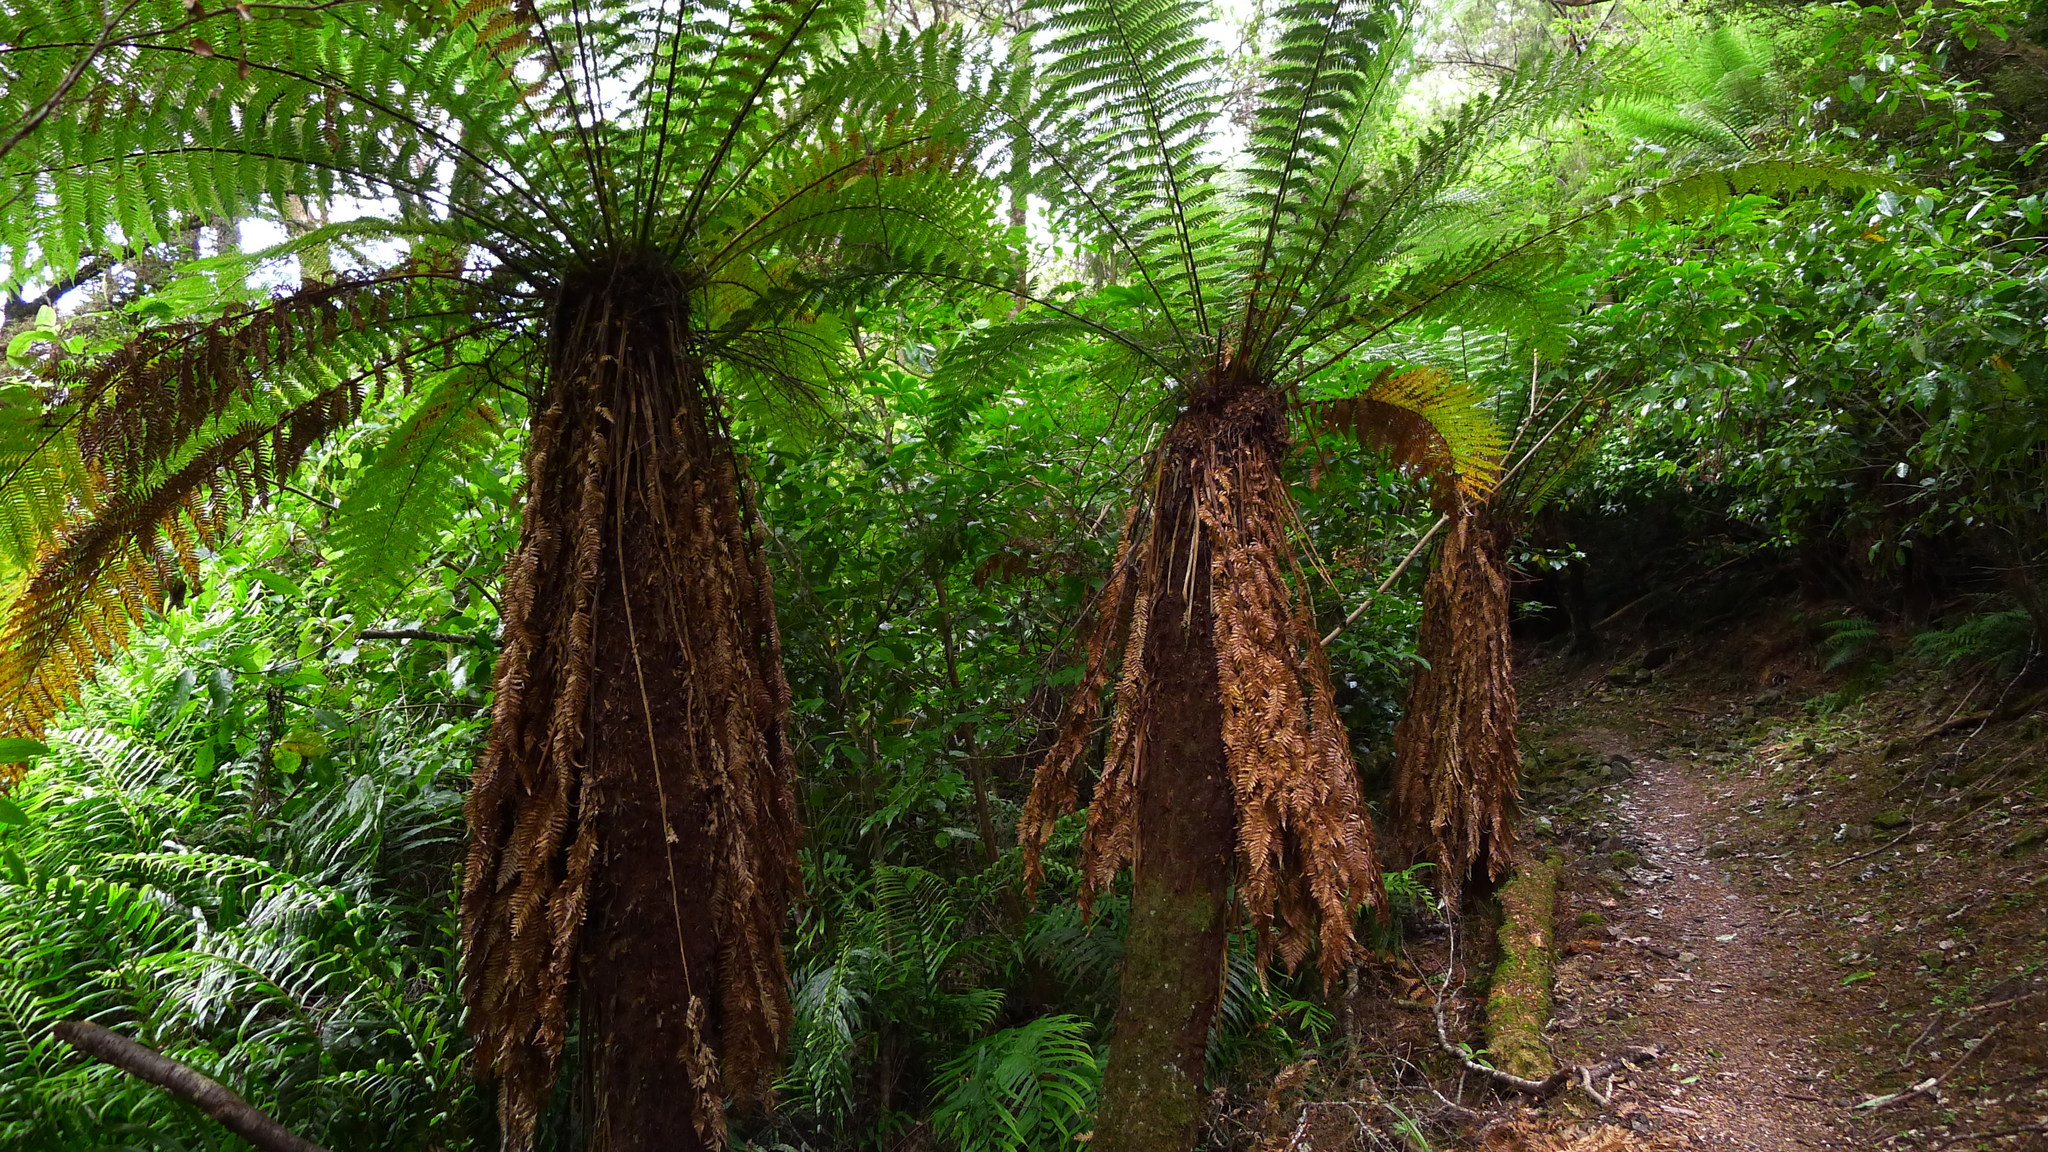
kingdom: Plantae
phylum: Tracheophyta
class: Polypodiopsida
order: Cyatheales
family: Dicksoniaceae
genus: Dicksonia
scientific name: Dicksonia fibrosa
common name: Golden tree fern
